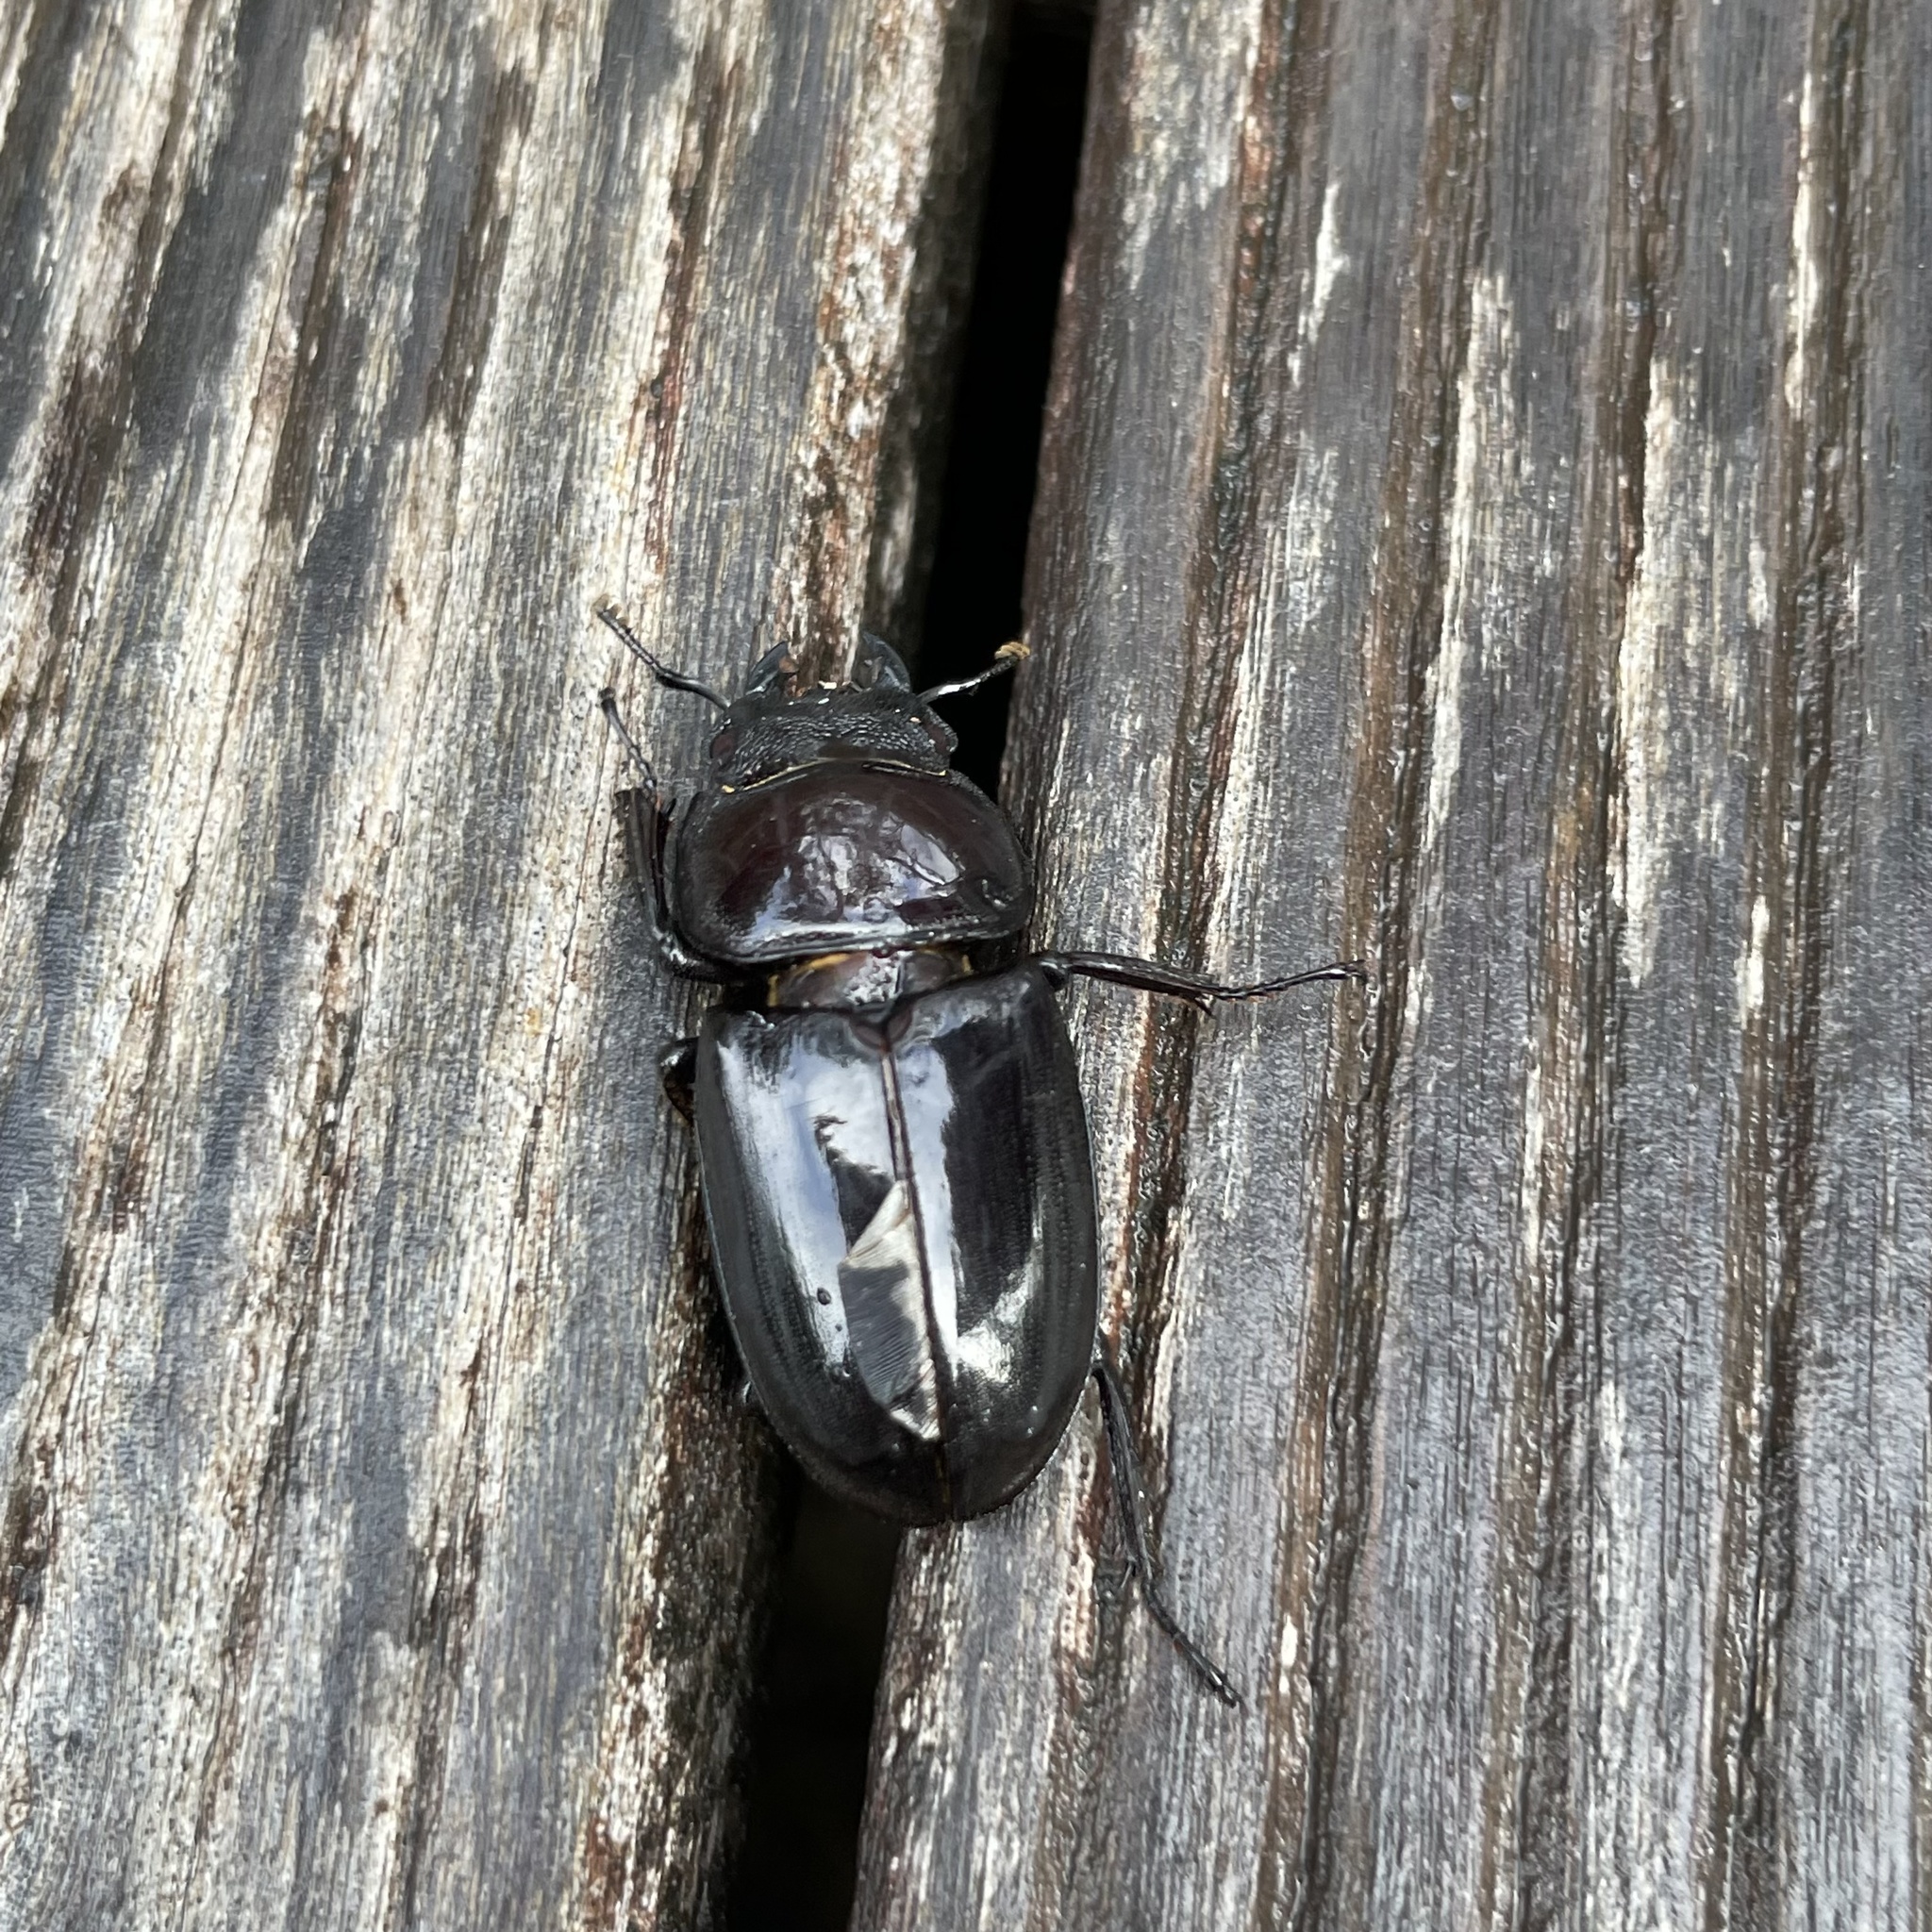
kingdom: Animalia
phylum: Arthropoda
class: Insecta
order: Coleoptera
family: Lucanidae
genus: Serrognathus
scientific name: Serrognathus titanus
